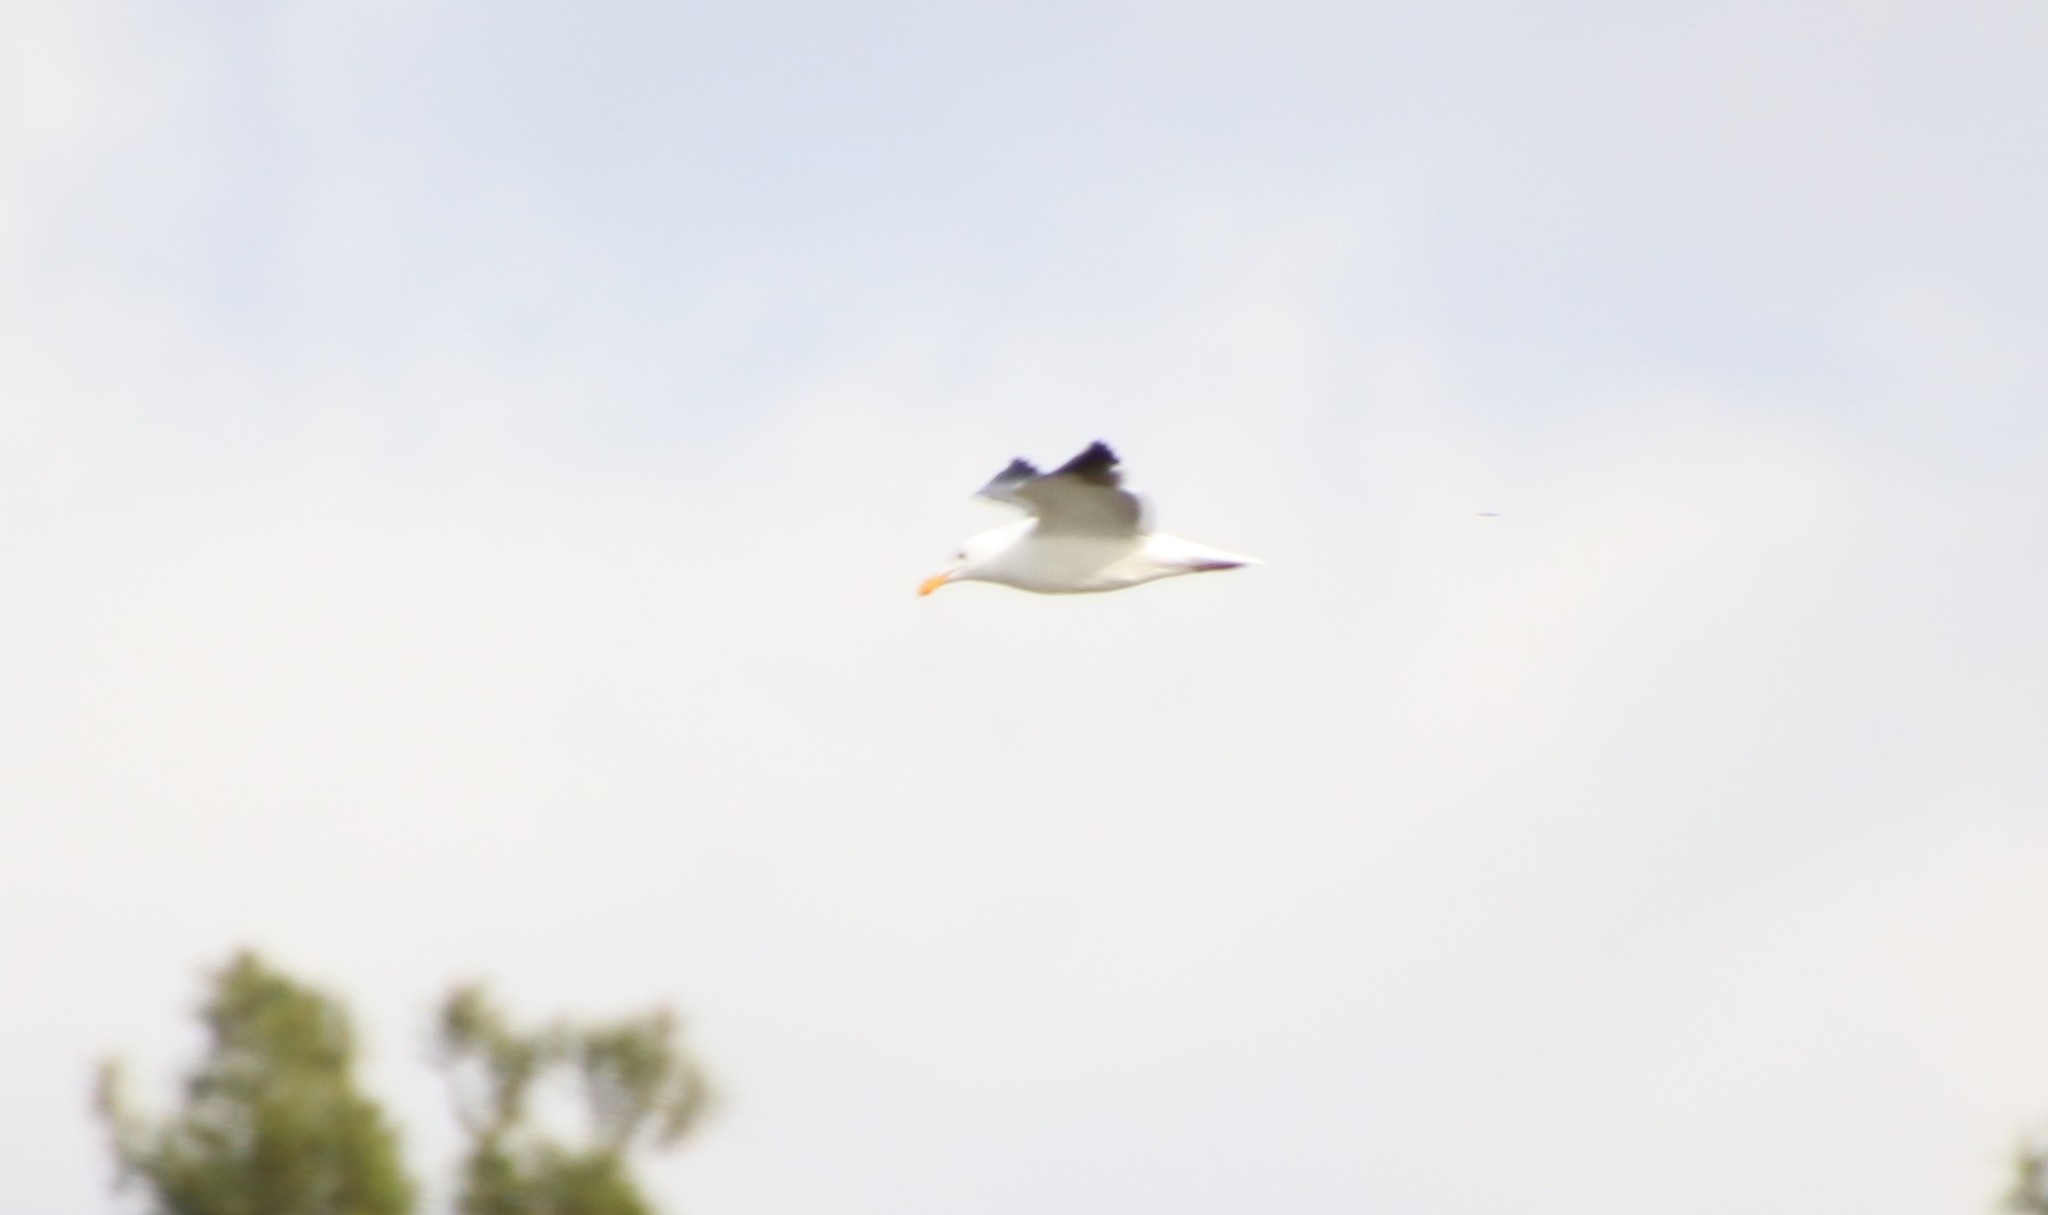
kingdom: Animalia
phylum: Chordata
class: Aves
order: Charadriiformes
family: Laridae
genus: Larus
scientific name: Larus occidentalis
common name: Western gull
